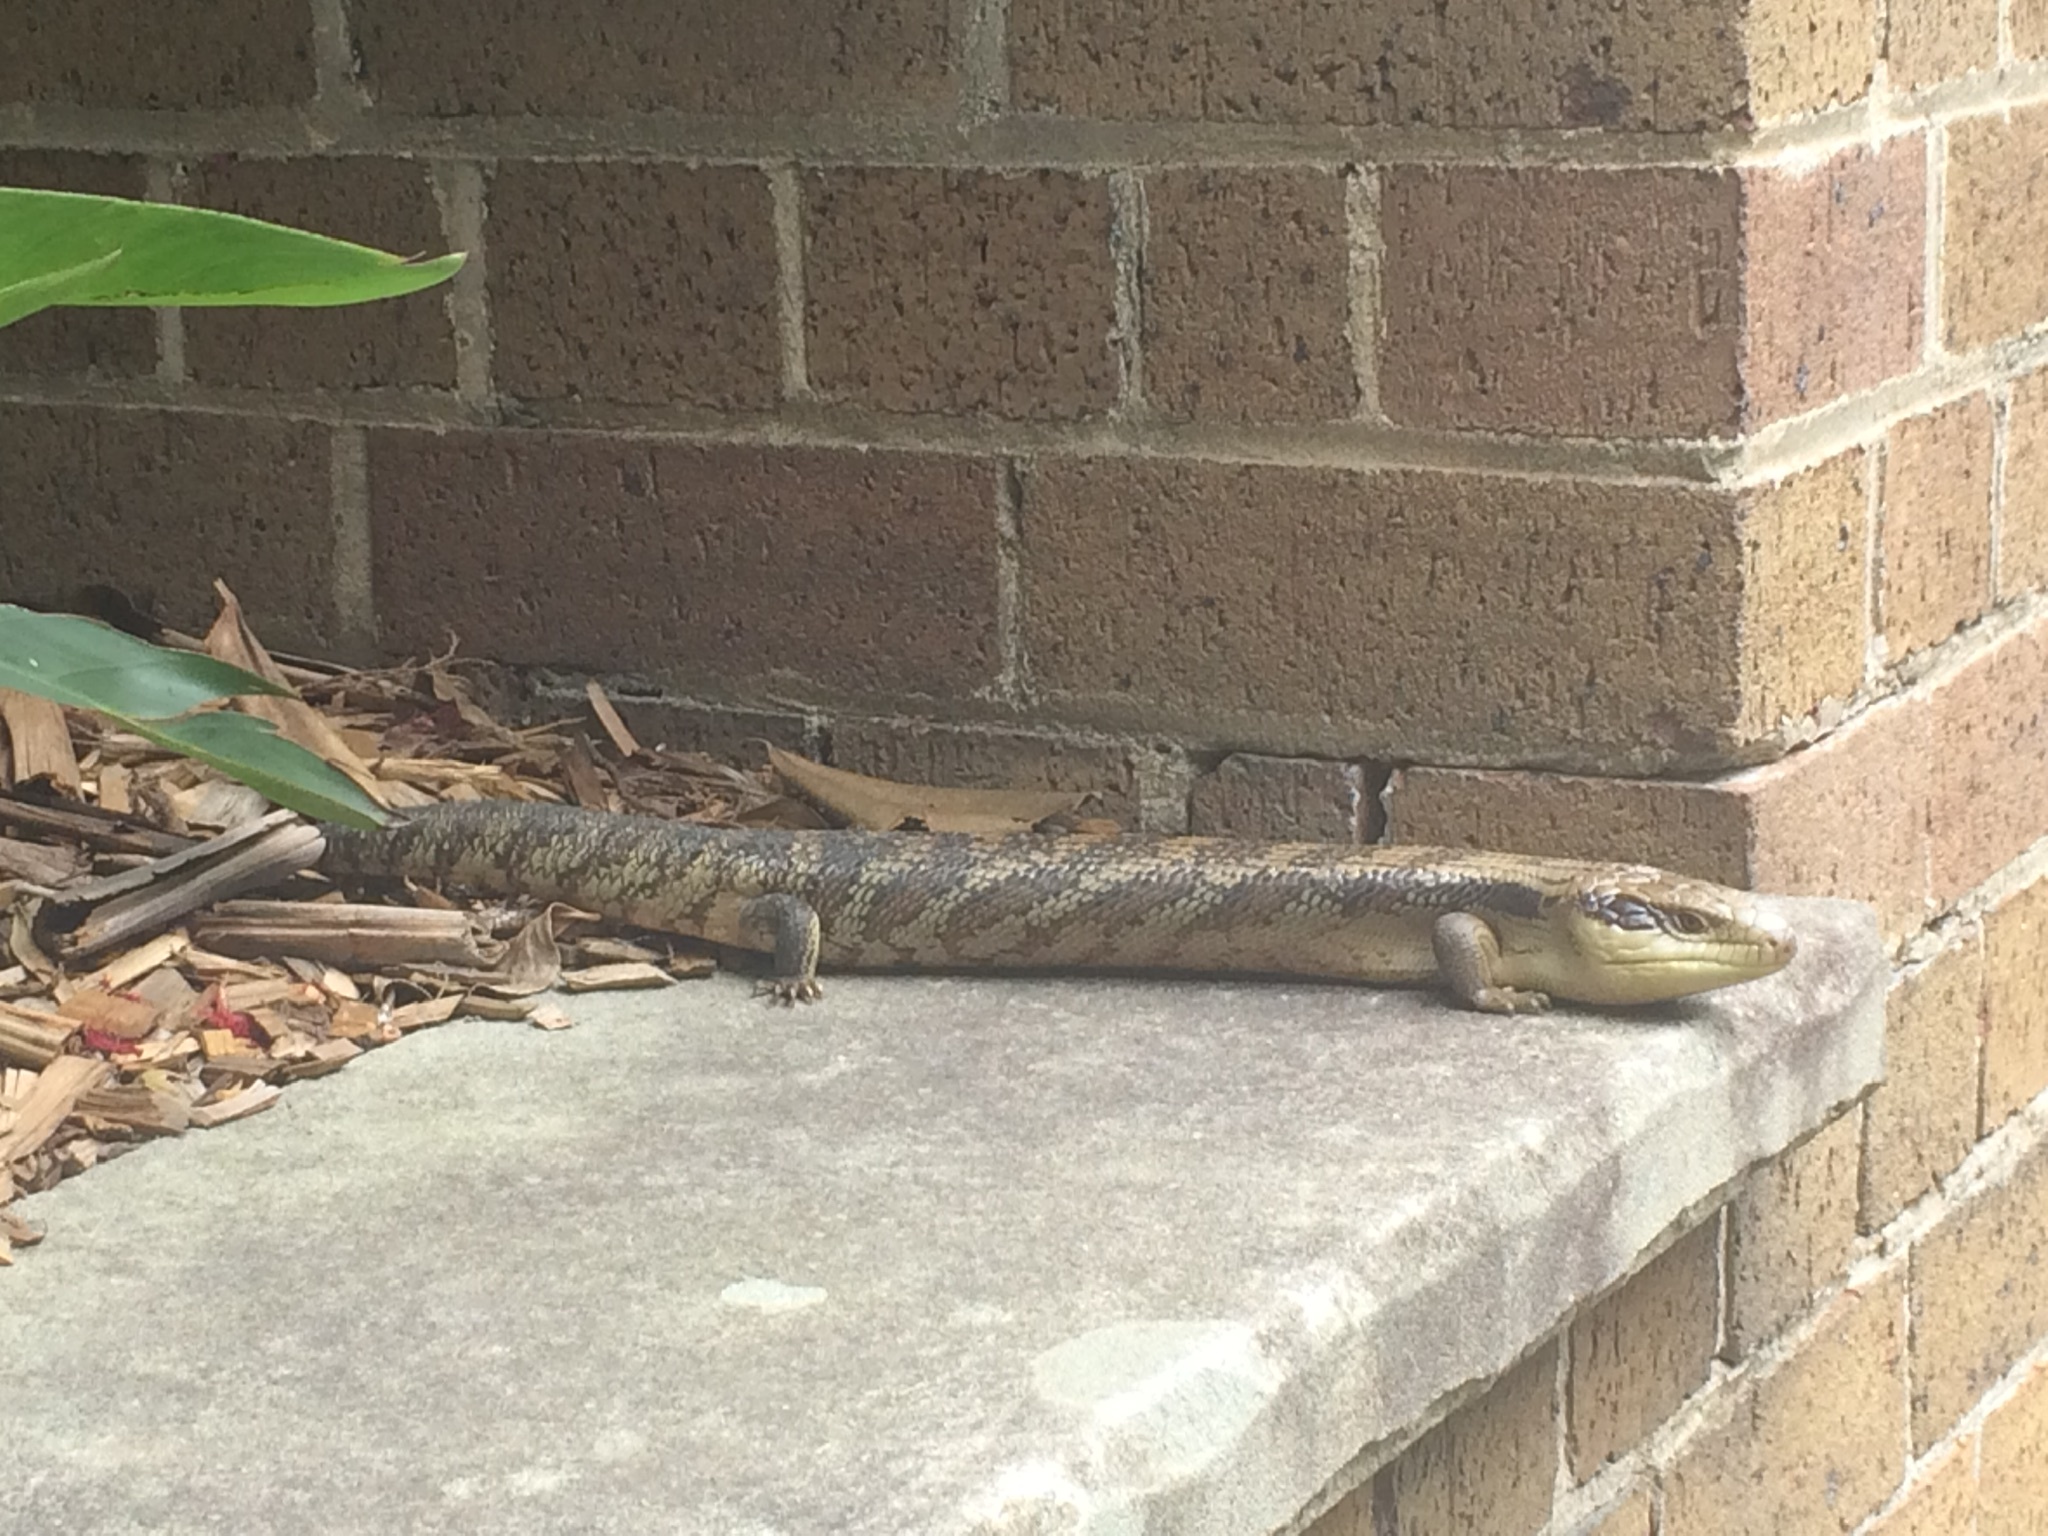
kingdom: Animalia
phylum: Chordata
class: Squamata
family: Scincidae
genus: Tiliqua
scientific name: Tiliqua scincoides
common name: Common bluetongue
